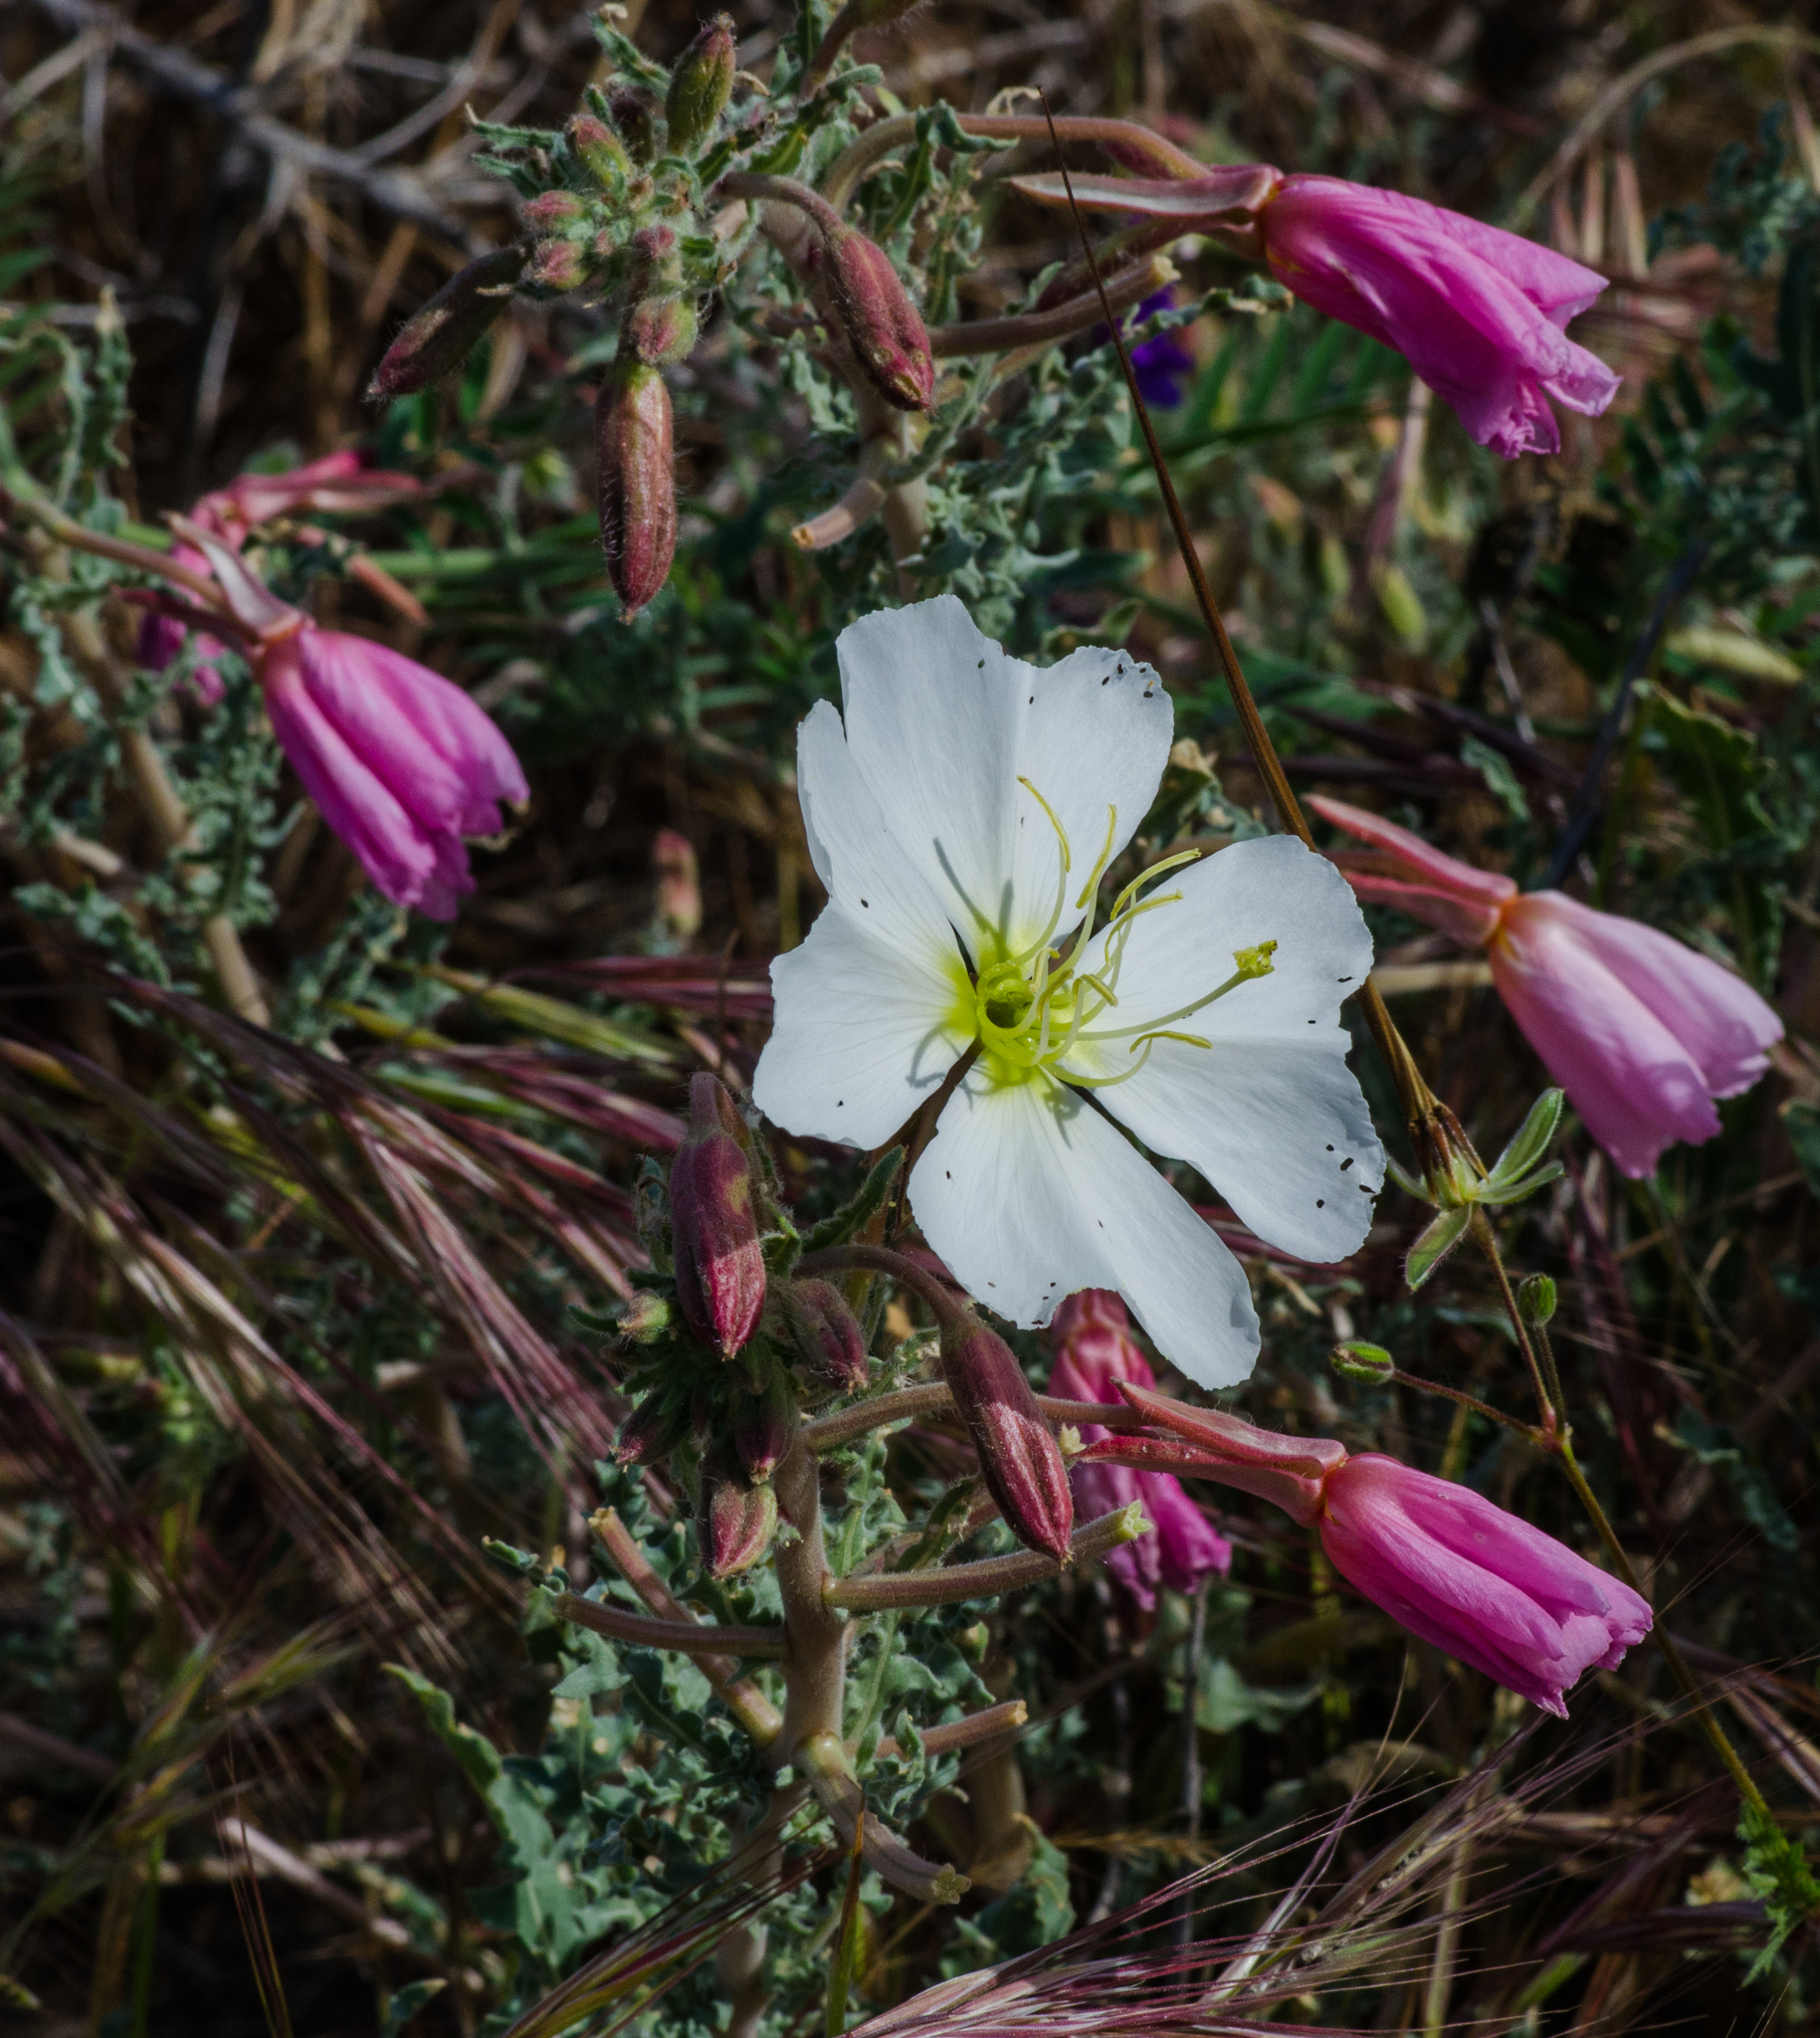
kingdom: Plantae
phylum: Tracheophyta
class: Magnoliopsida
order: Myrtales
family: Onagraceae
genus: Oenothera
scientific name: Oenothera deltoides
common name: Basket evening-primrose
